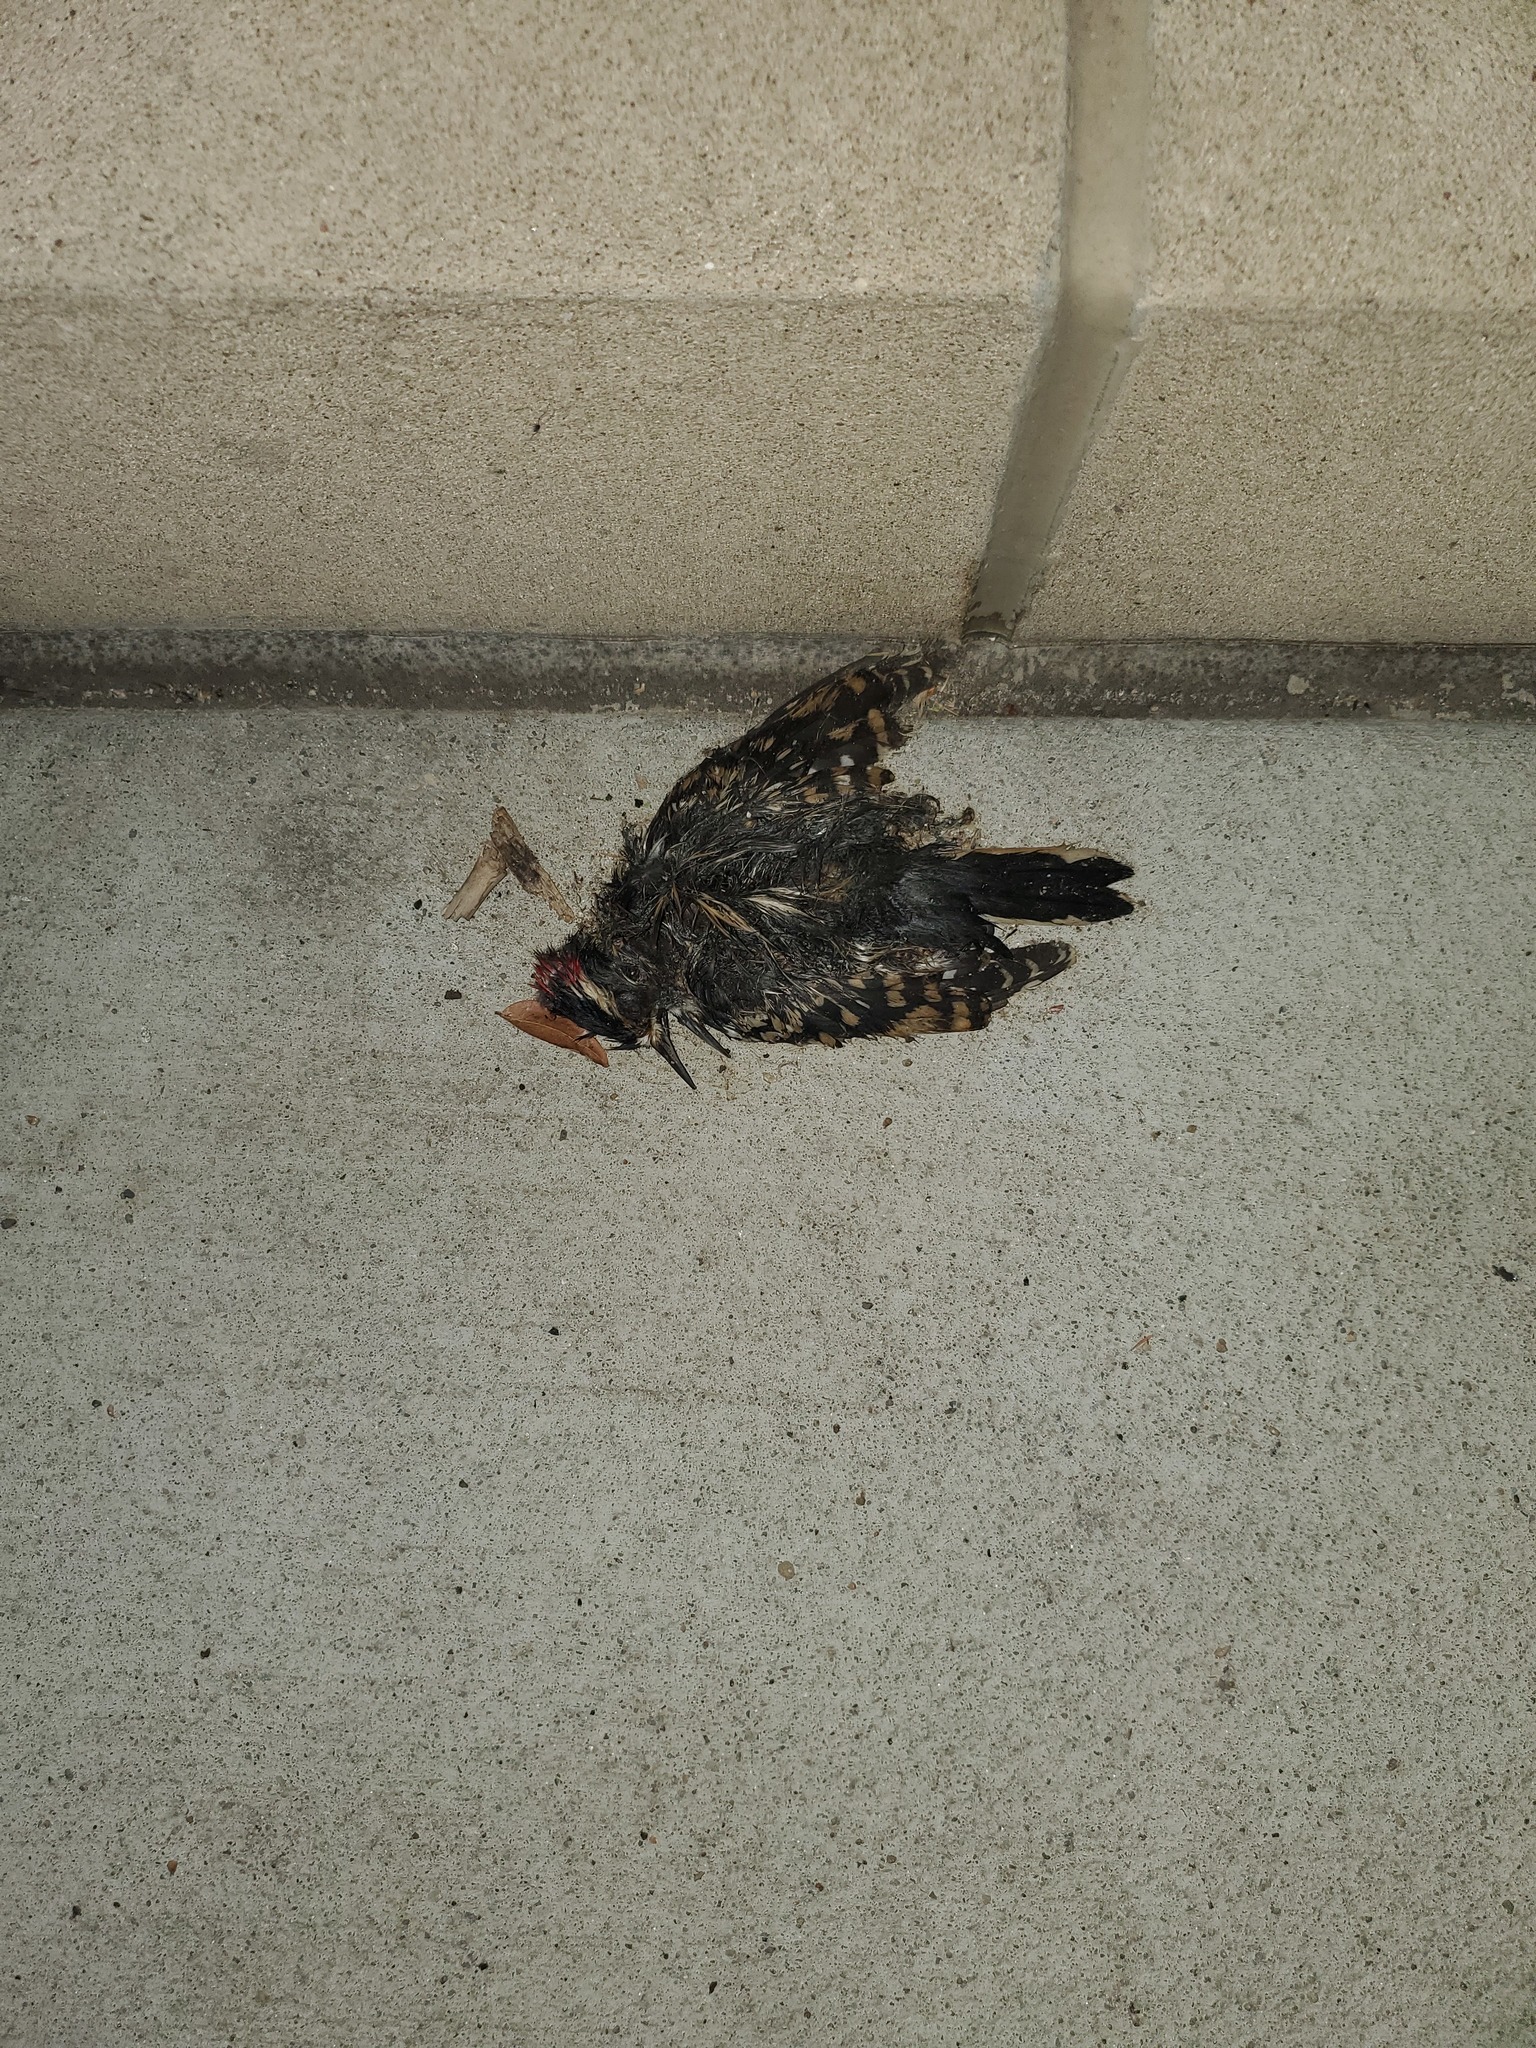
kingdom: Animalia
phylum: Chordata
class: Aves
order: Piciformes
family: Picidae
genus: Sphyrapicus
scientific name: Sphyrapicus varius
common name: Yellow-bellied sapsucker
